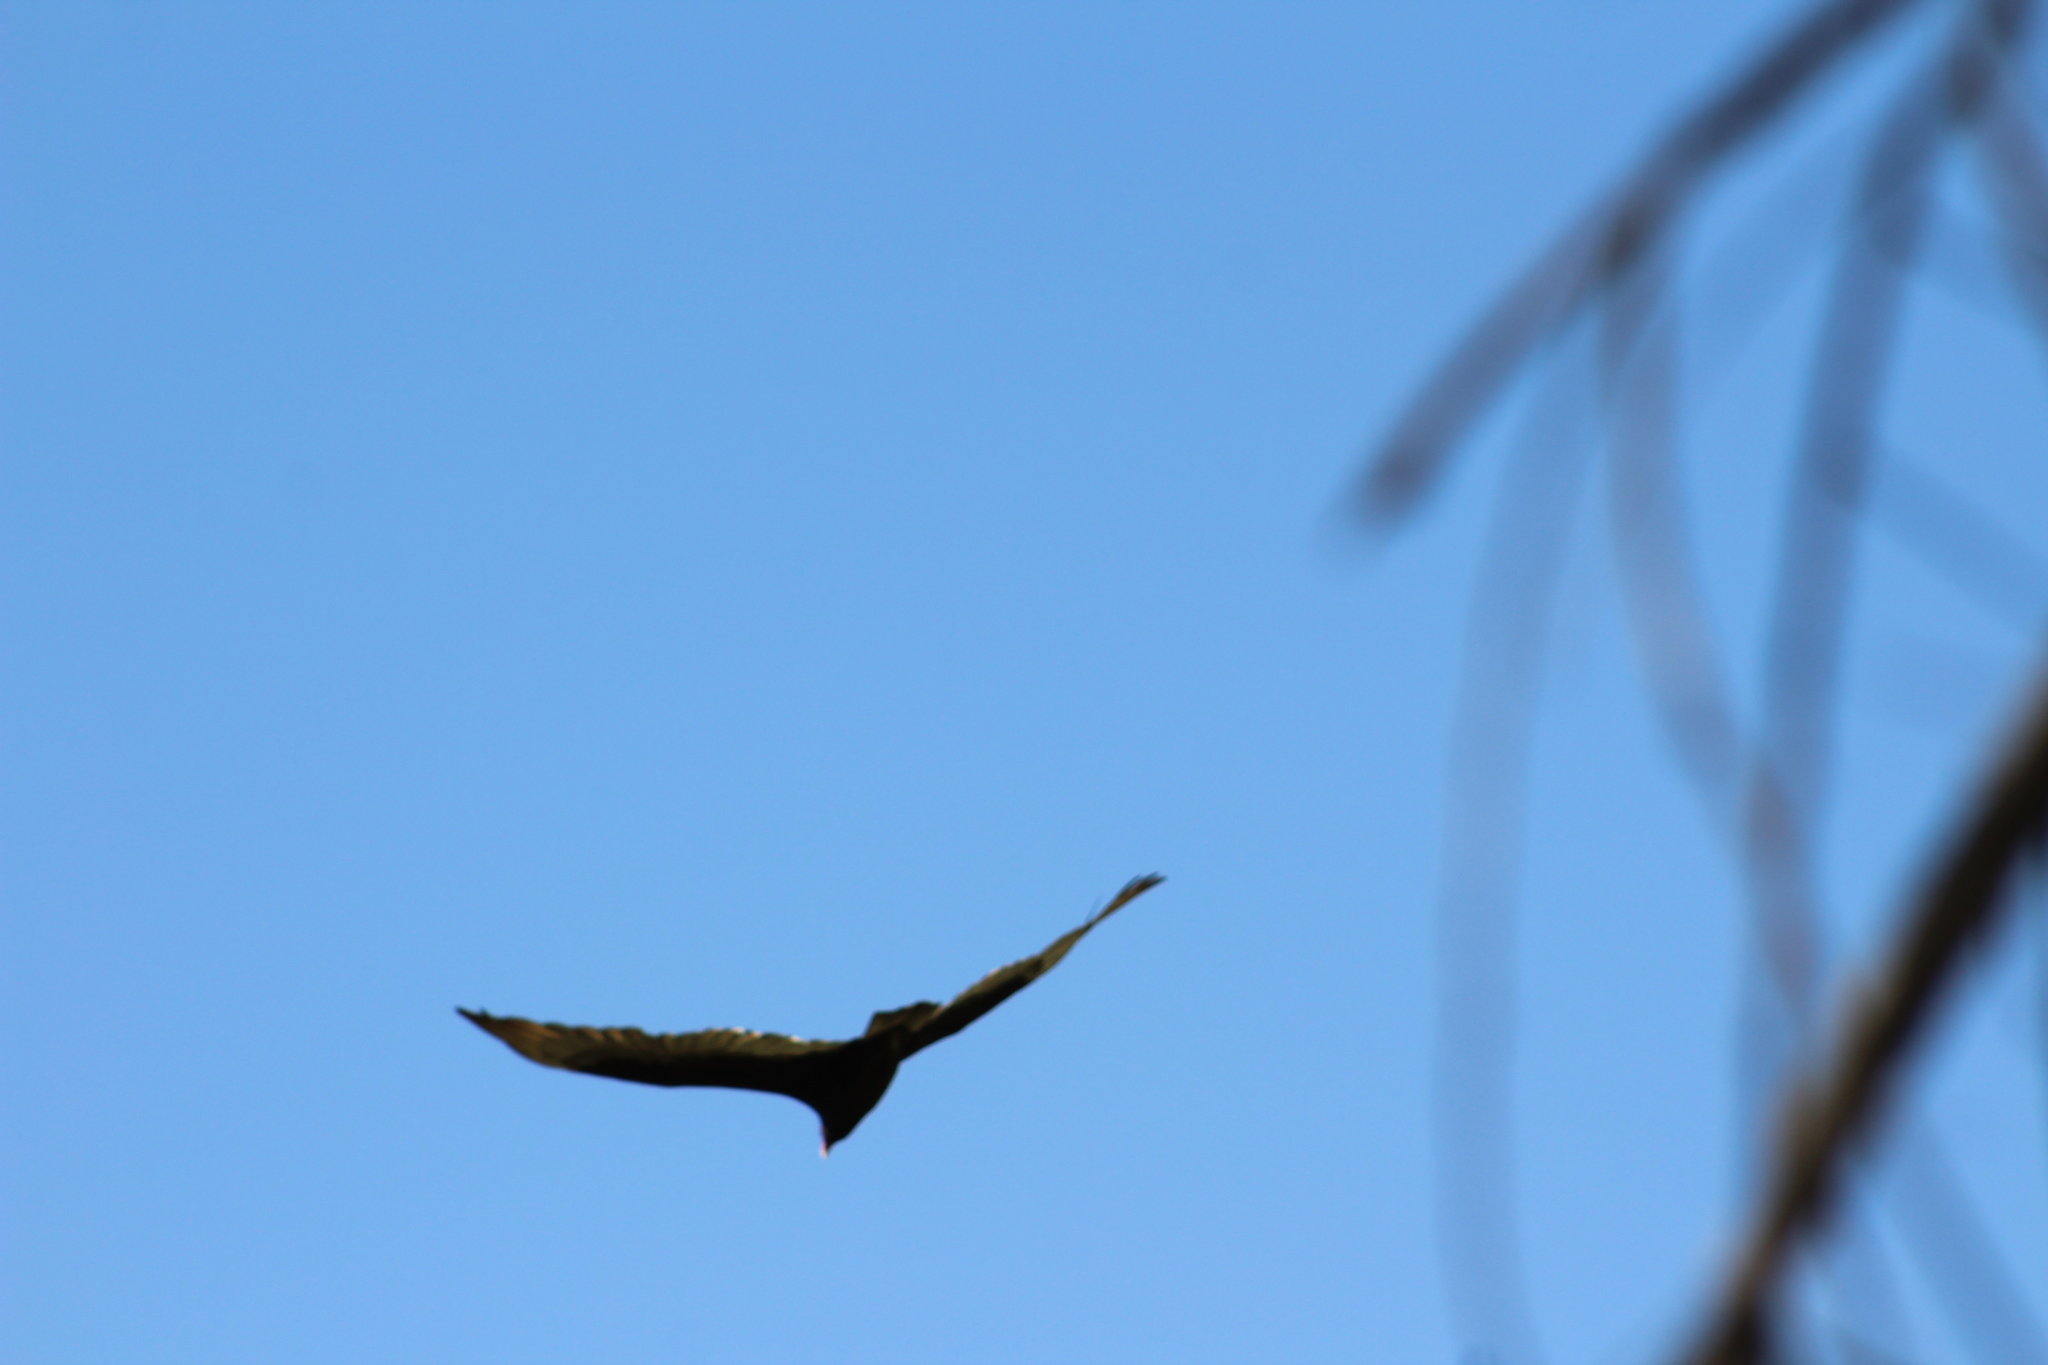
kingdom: Animalia
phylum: Chordata
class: Aves
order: Accipitriformes
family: Cathartidae
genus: Cathartes
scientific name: Cathartes aura
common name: Turkey vulture
